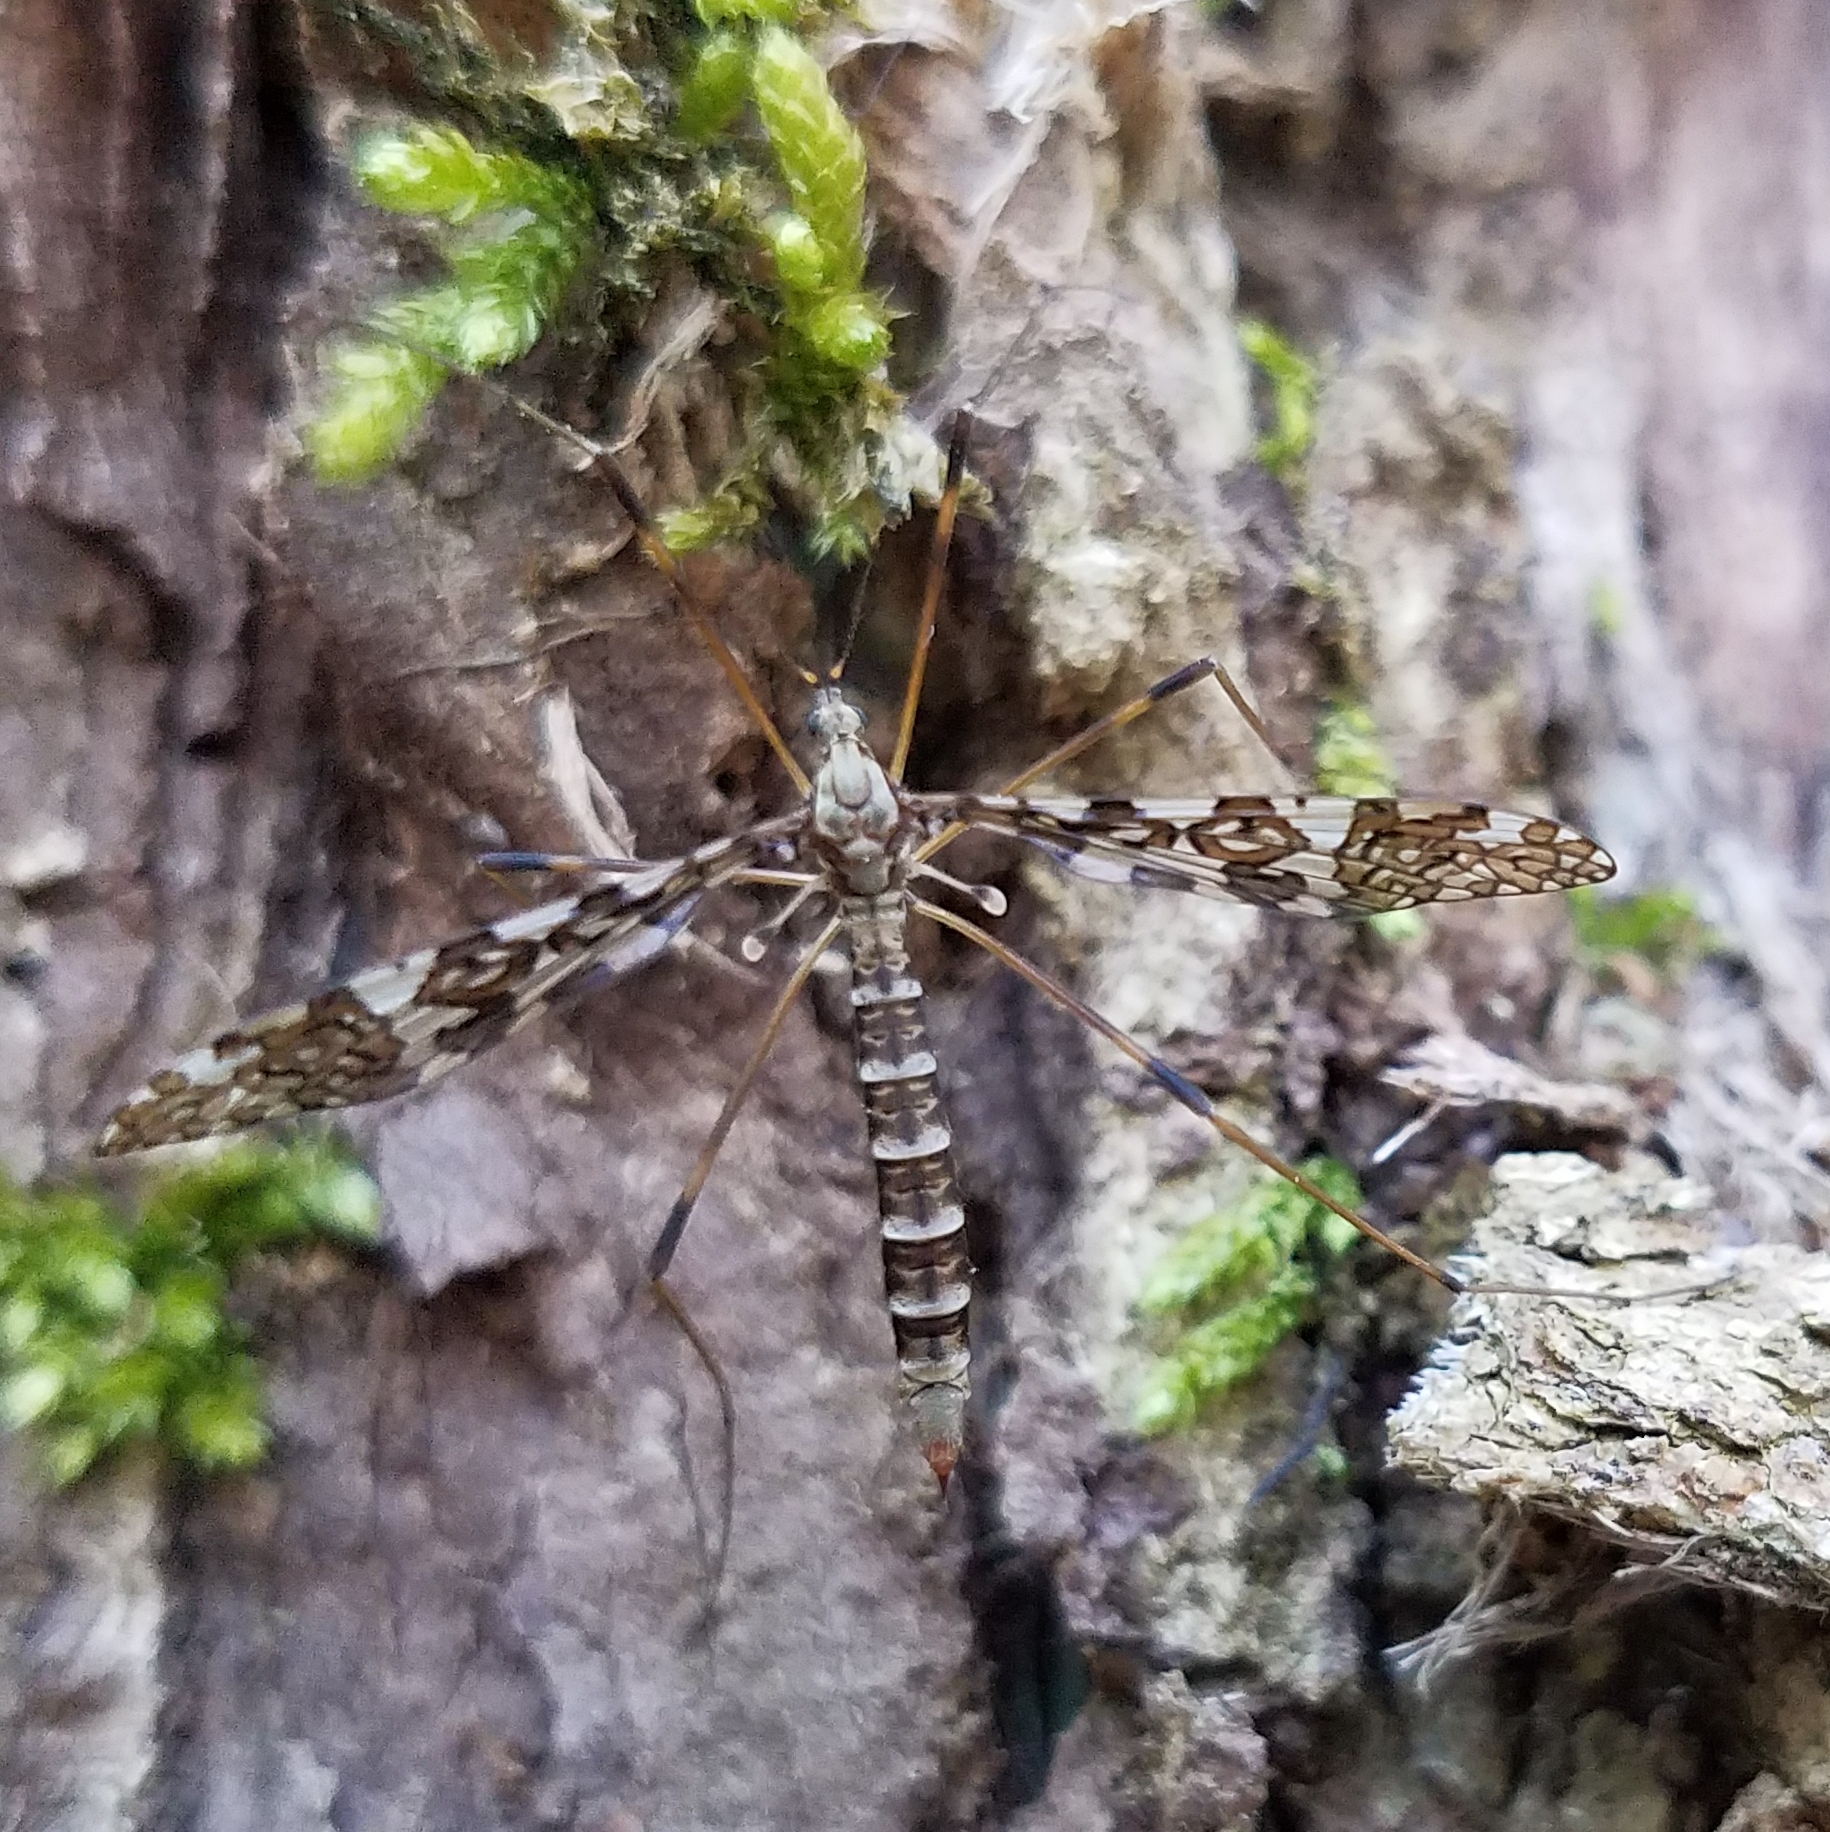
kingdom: Animalia
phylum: Arthropoda
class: Insecta
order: Diptera
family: Limoniidae
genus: Epiphragma
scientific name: Epiphragma fasciapenne
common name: Band-winged crane fly
